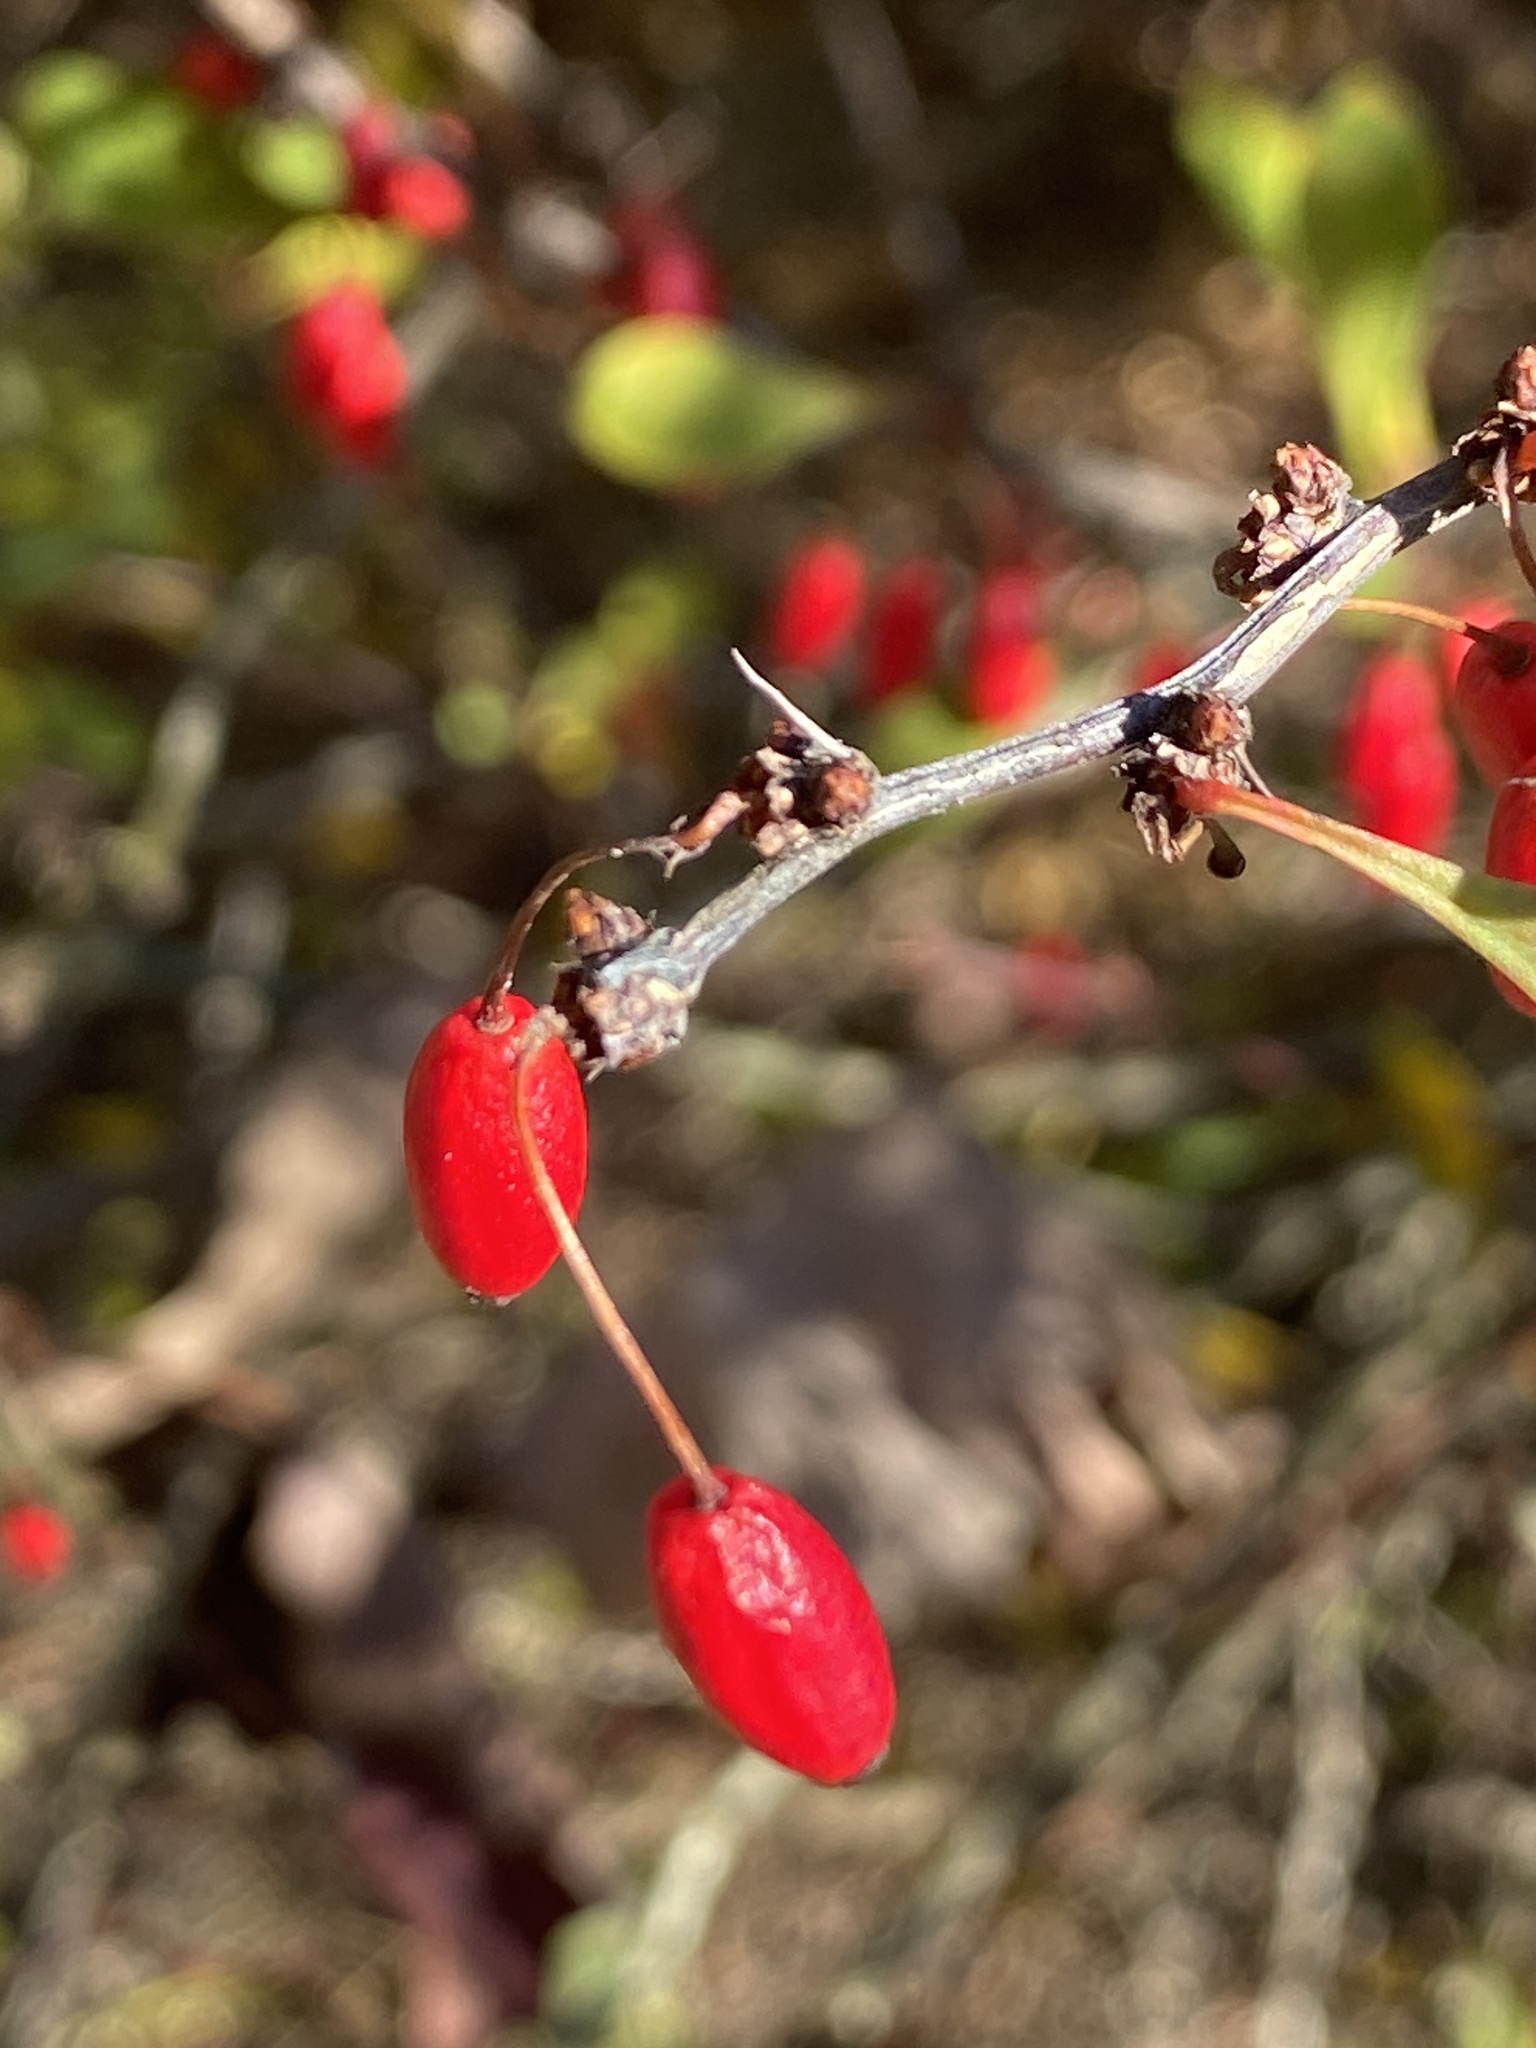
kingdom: Plantae
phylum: Tracheophyta
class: Magnoliopsida
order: Ranunculales
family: Berberidaceae
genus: Berberis
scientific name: Berberis thunbergii
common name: Japanese barberry
